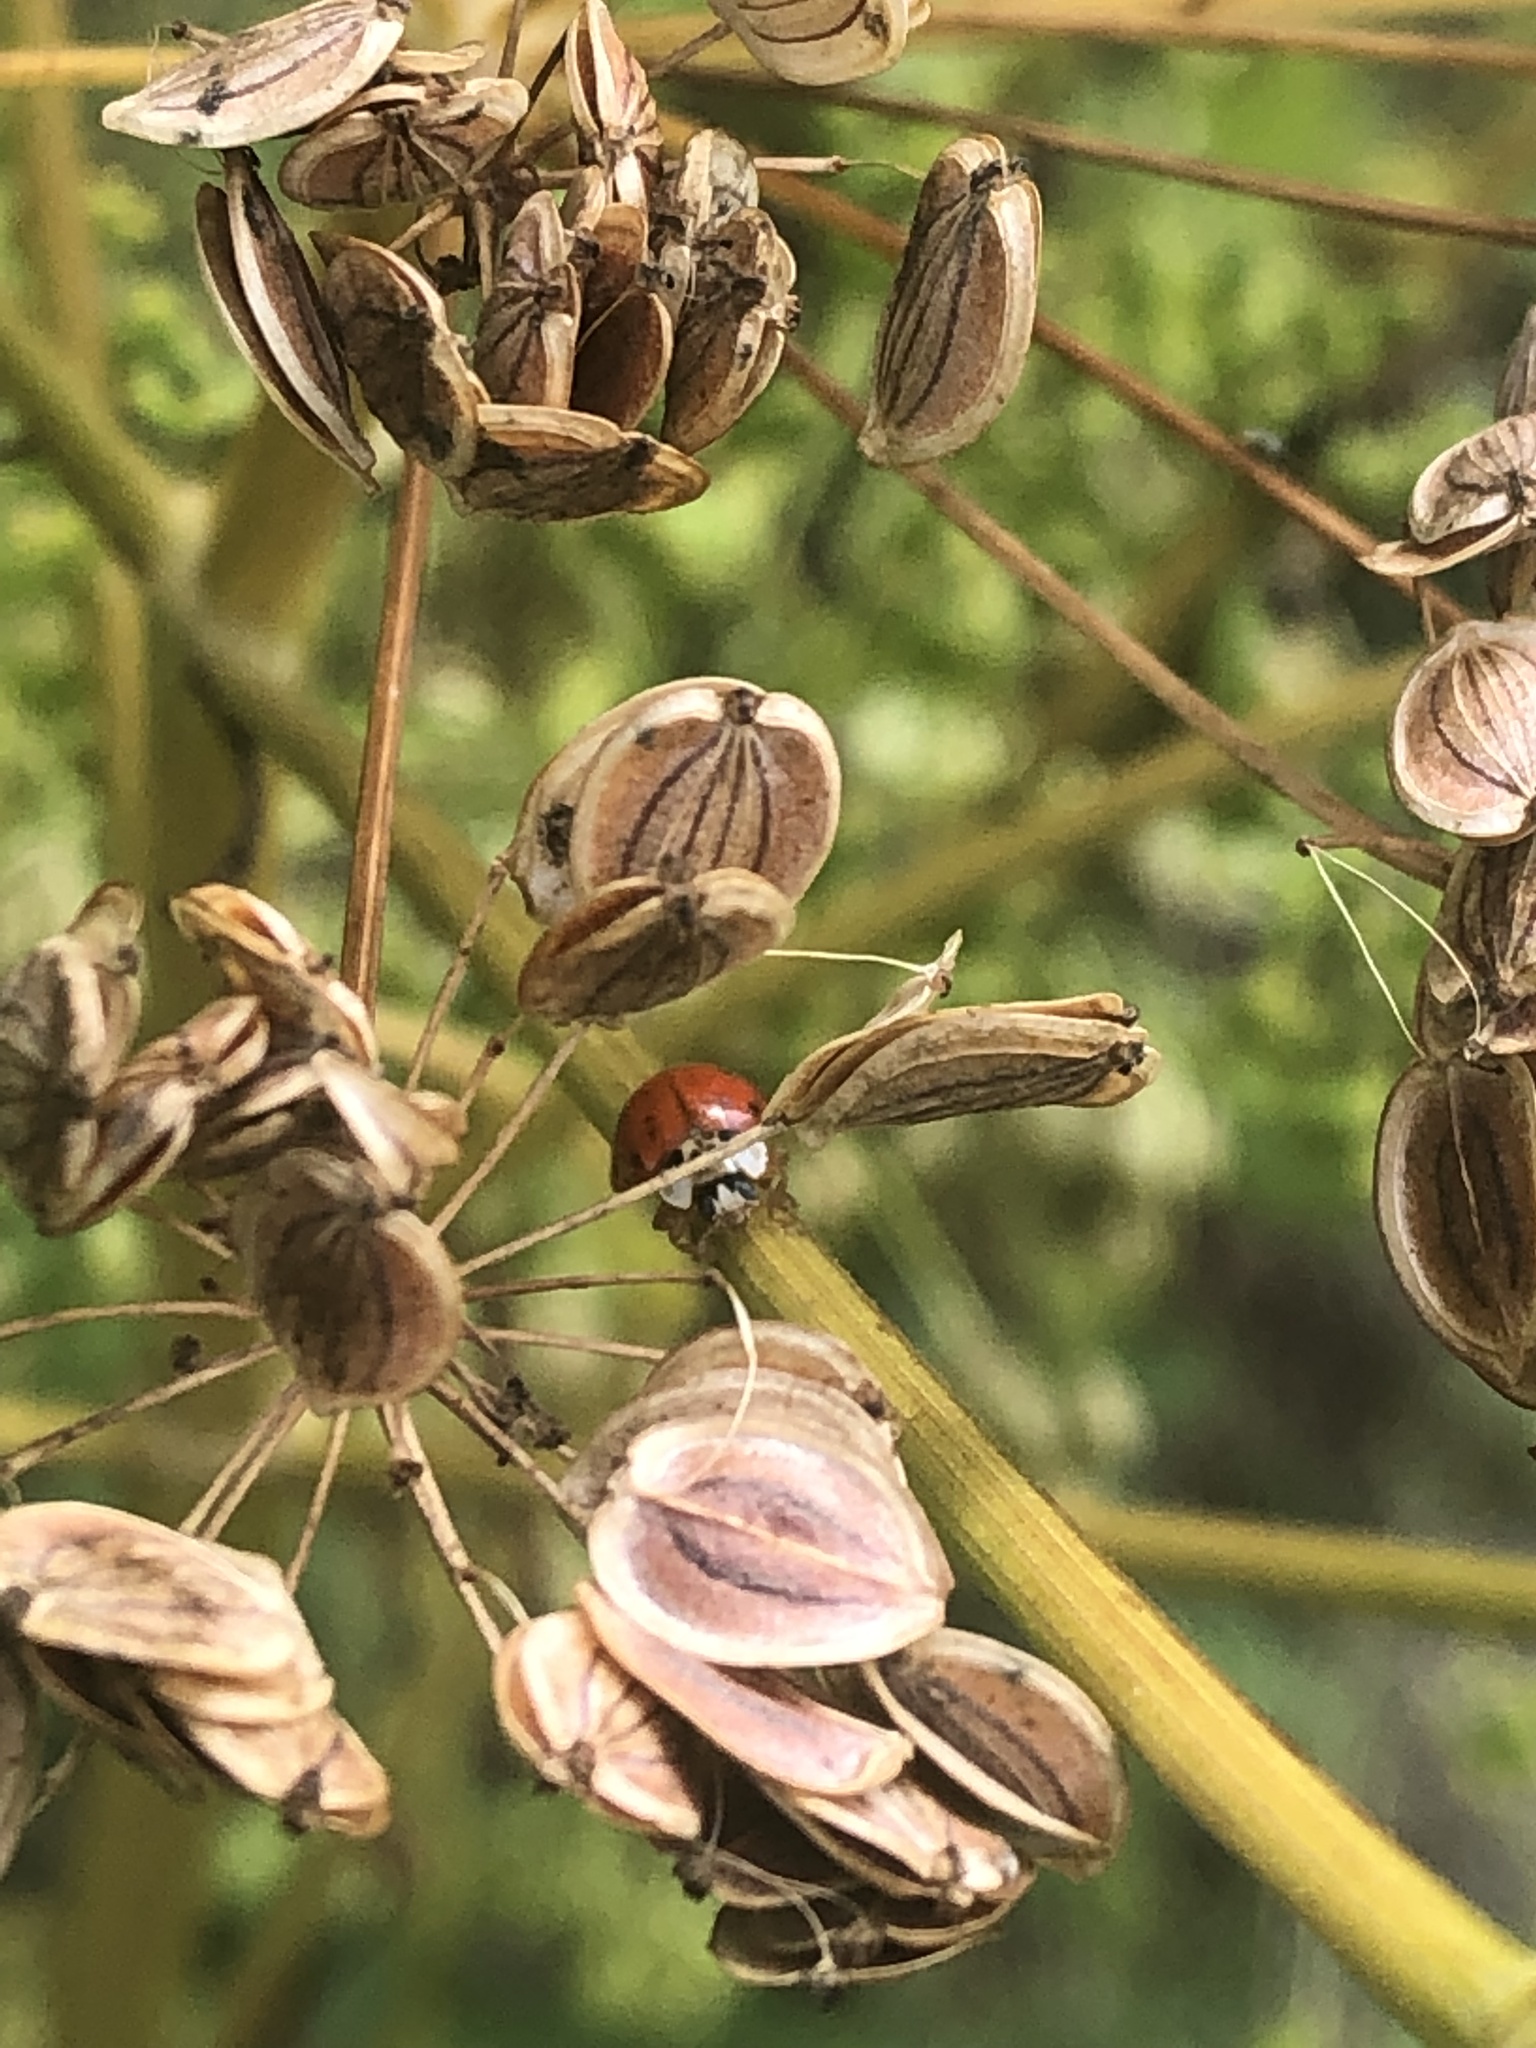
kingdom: Animalia
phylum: Arthropoda
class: Insecta
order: Coleoptera
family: Coccinellidae
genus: Harmonia
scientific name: Harmonia axyridis
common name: Harlequin ladybird
